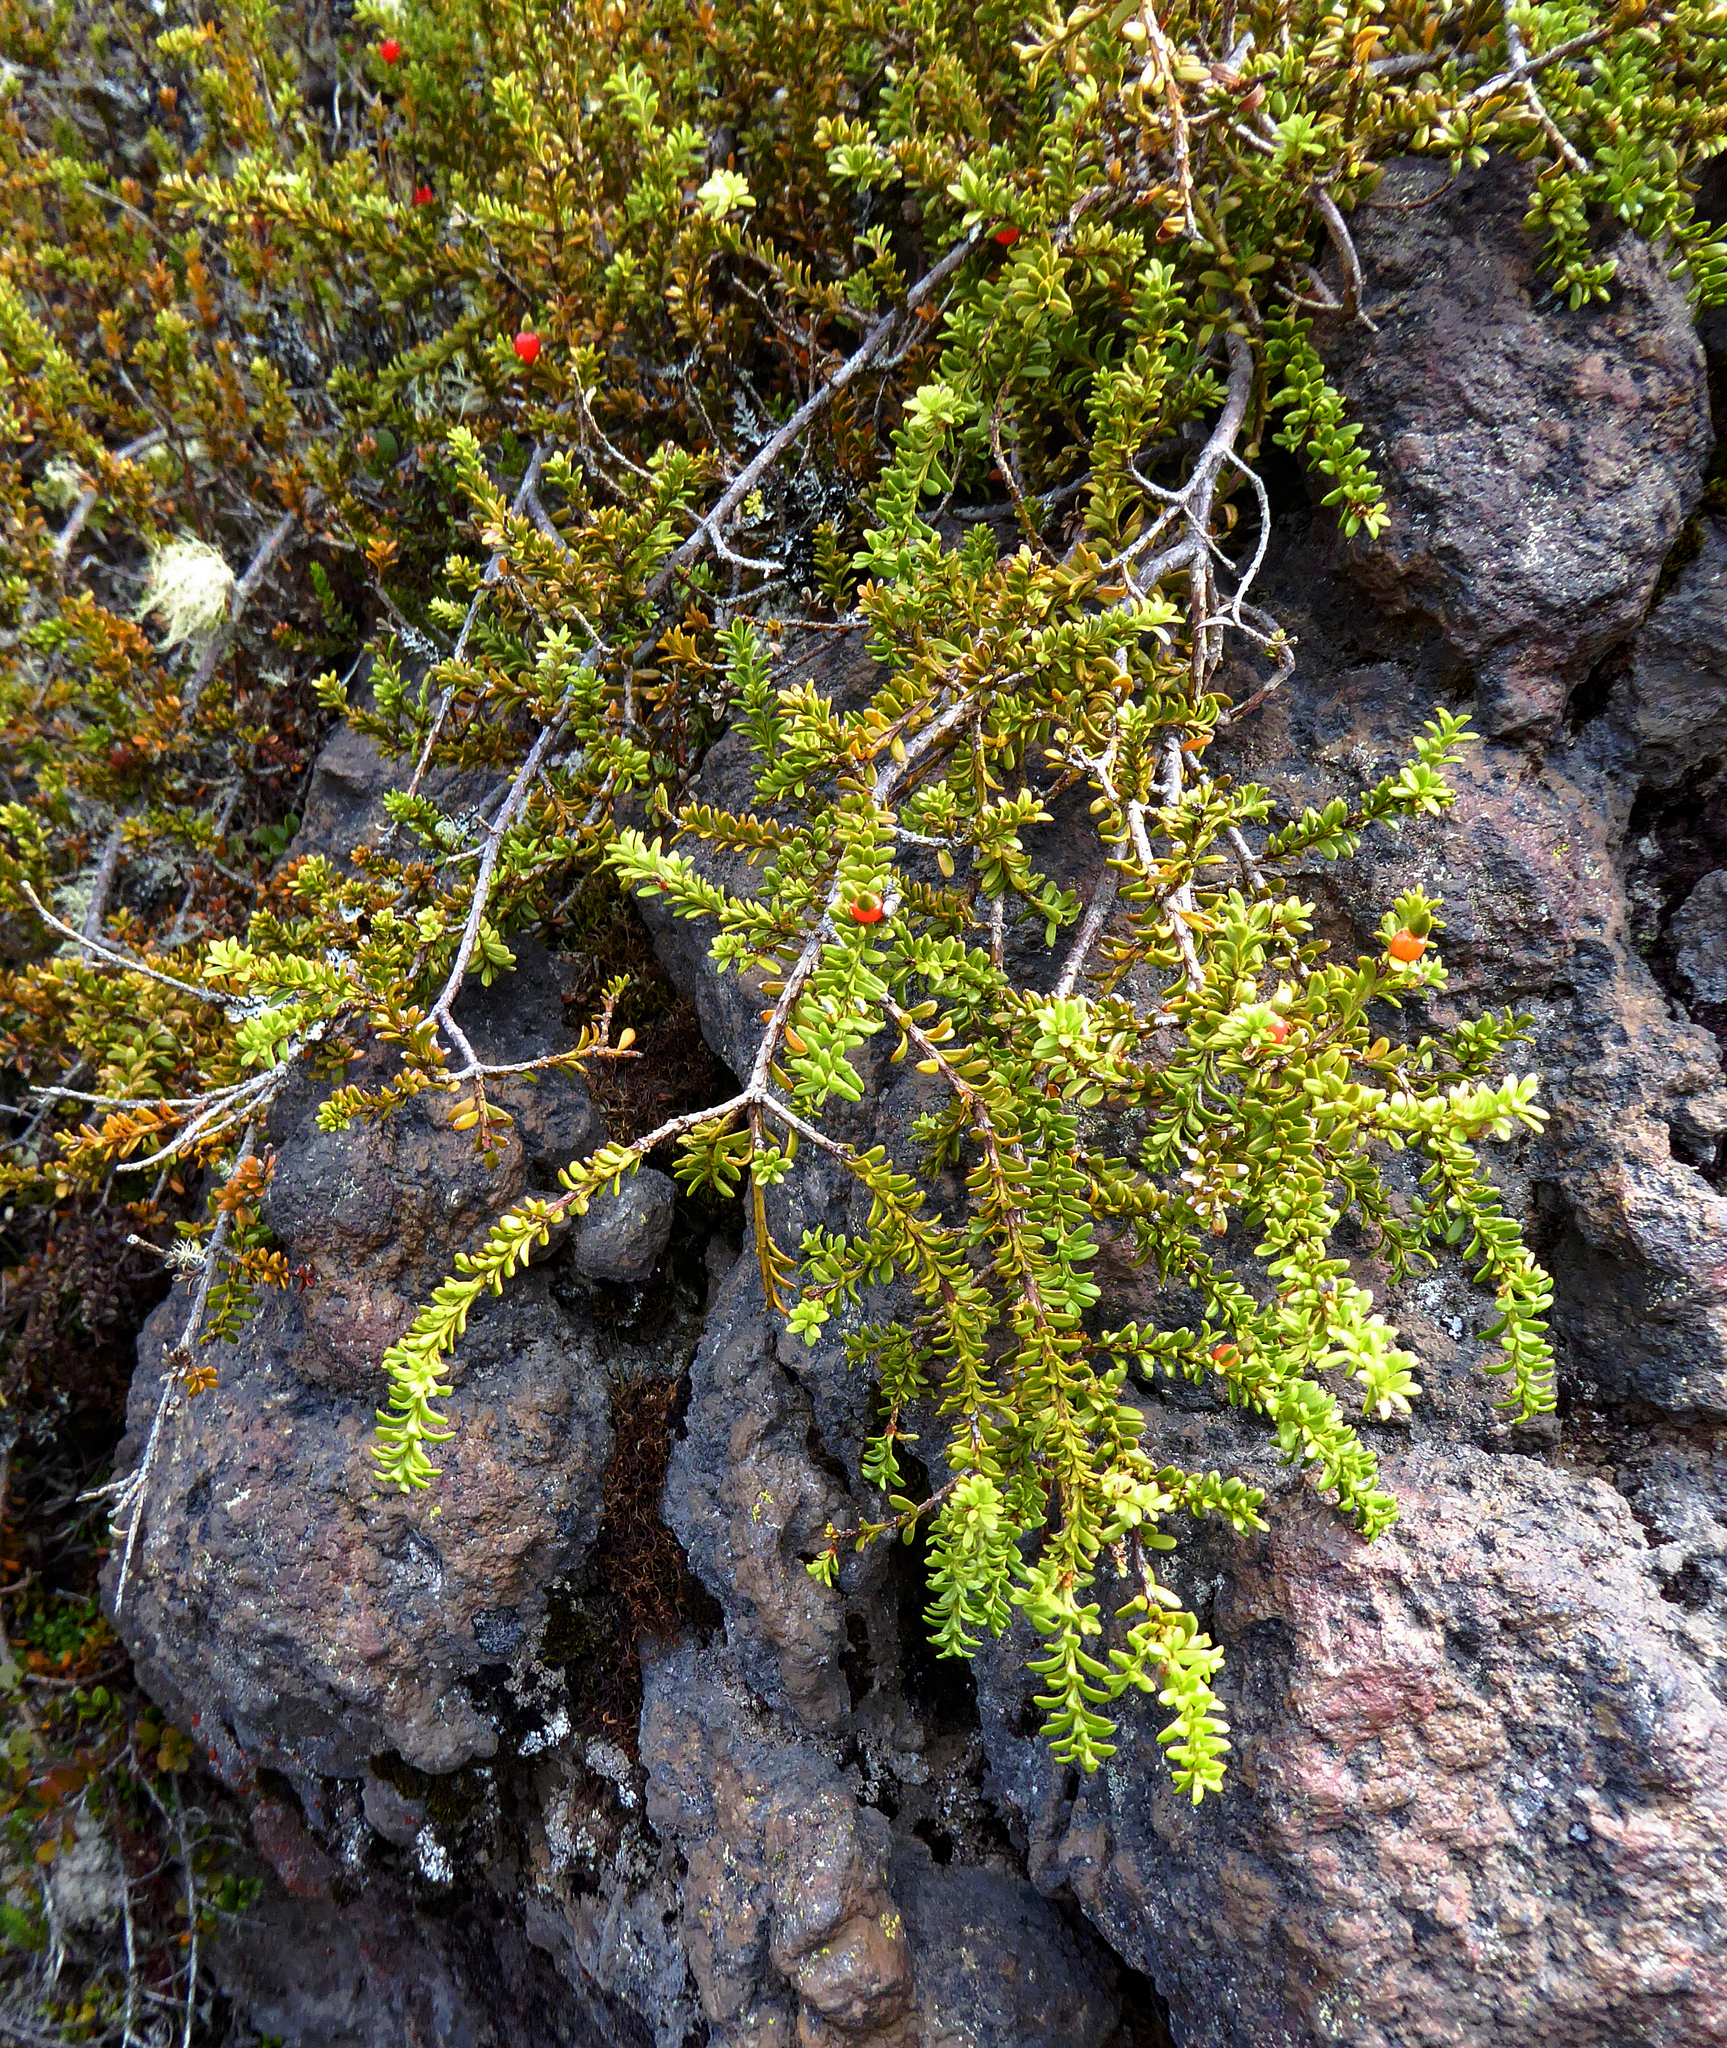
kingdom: Plantae
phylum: Tracheophyta
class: Pinopsida
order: Pinales
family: Podocarpaceae
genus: Podocarpus
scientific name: Podocarpus nivalis
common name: Alpine totara
